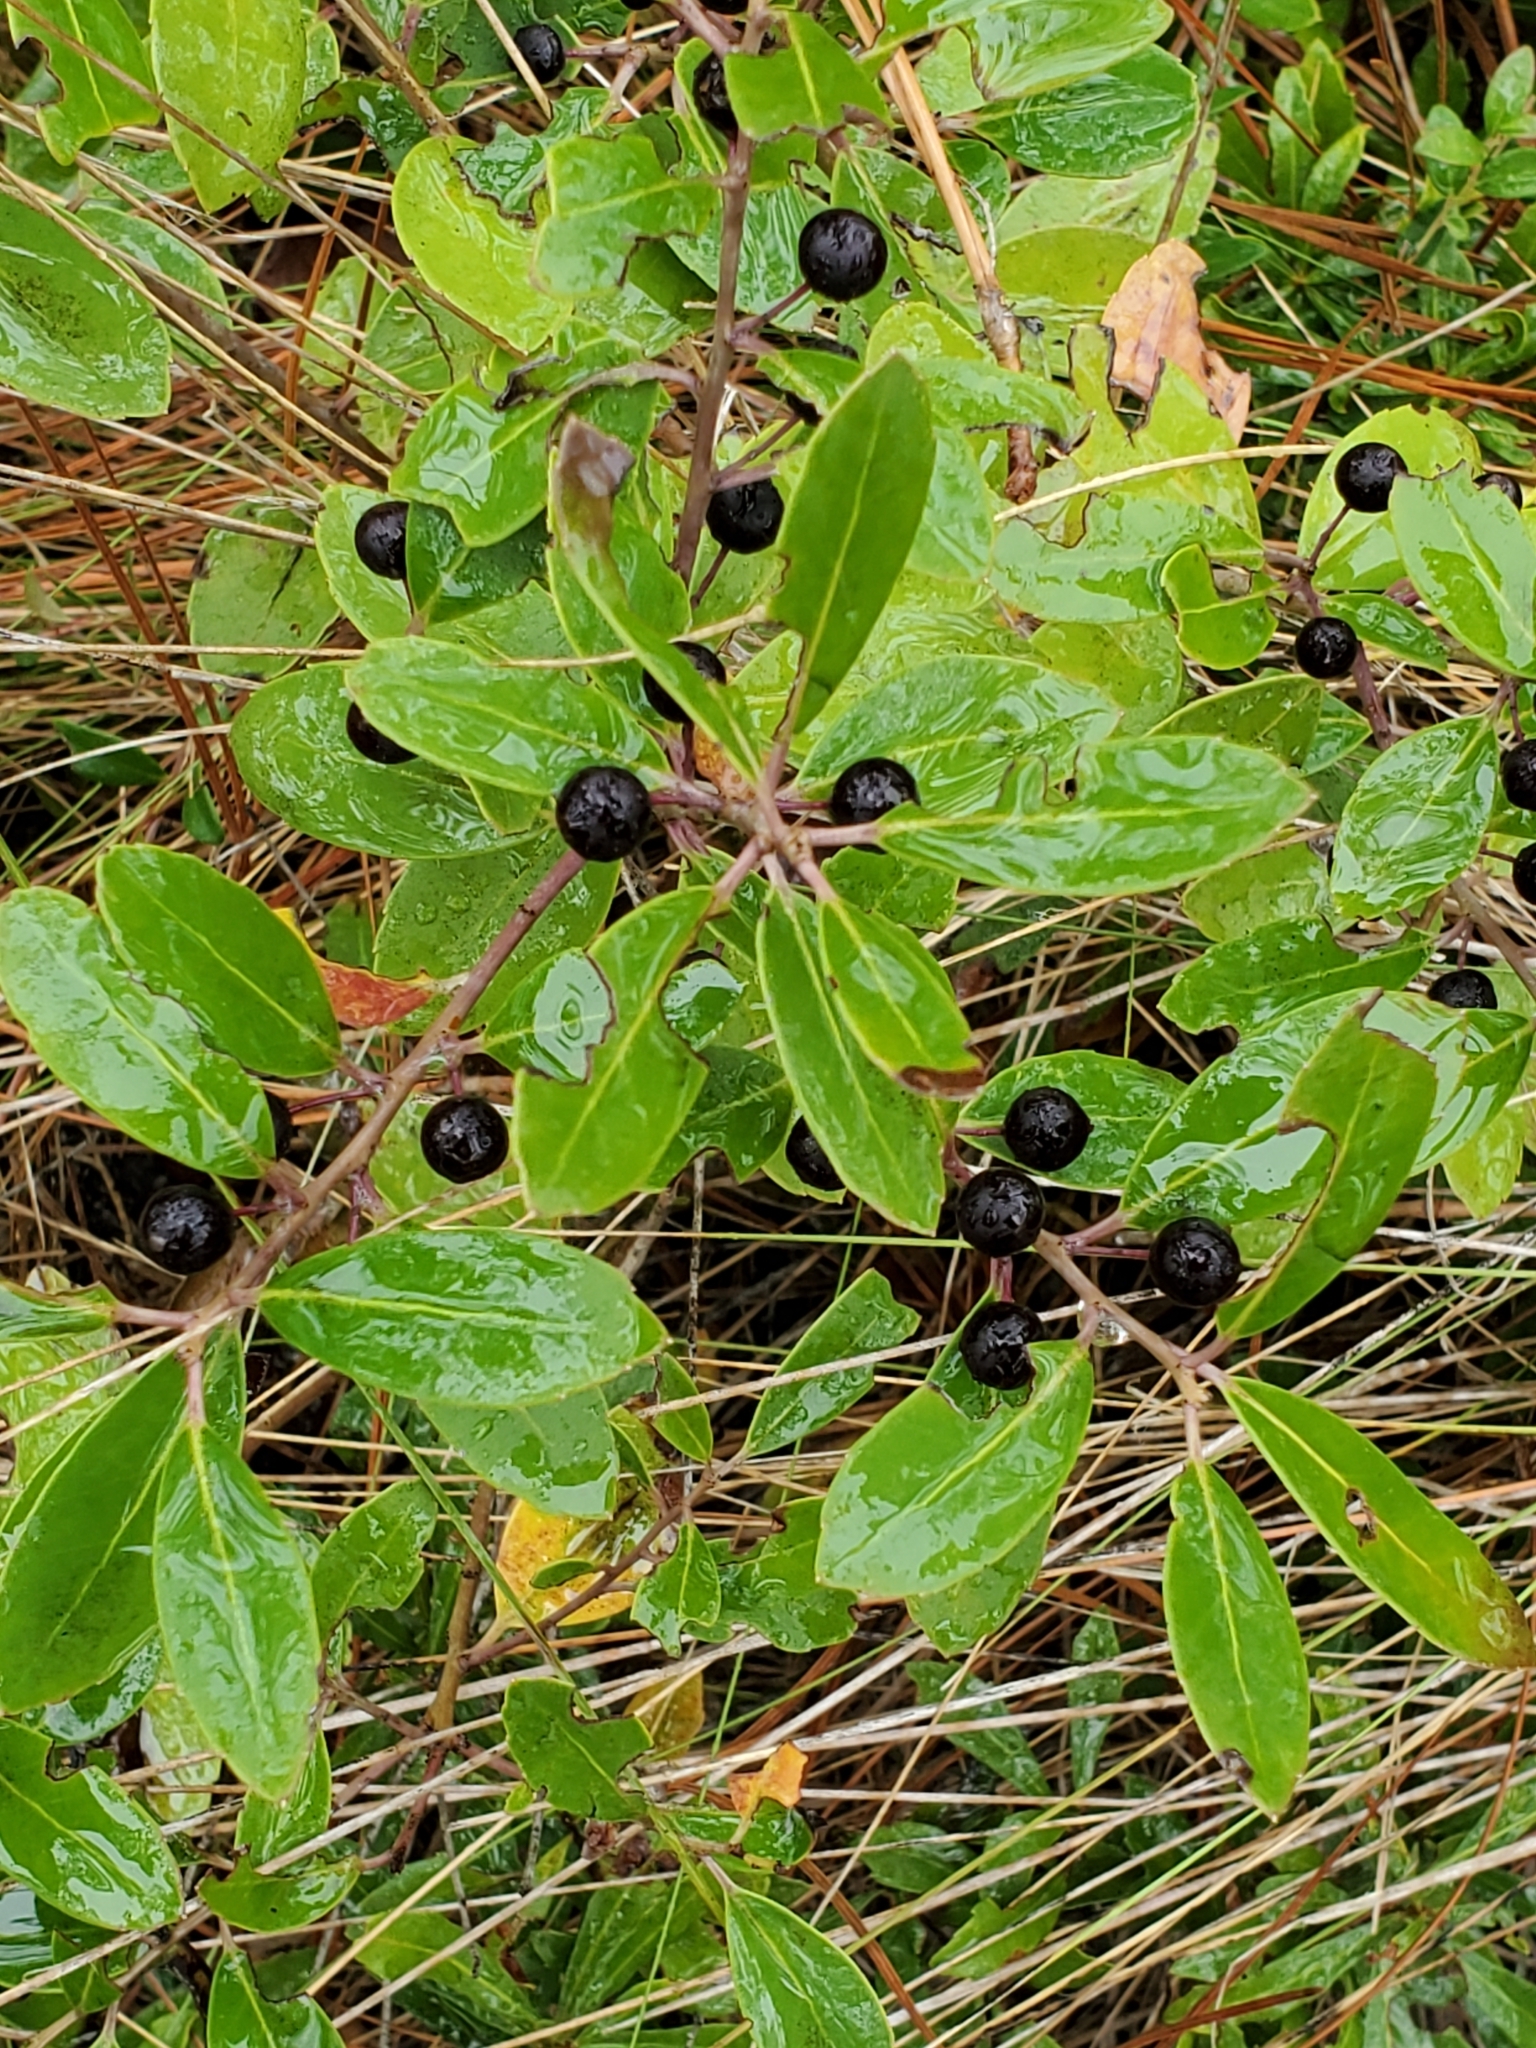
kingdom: Plantae
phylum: Tracheophyta
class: Magnoliopsida
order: Aquifoliales
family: Aquifoliaceae
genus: Ilex
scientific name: Ilex glabra
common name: Bitter gallberry
